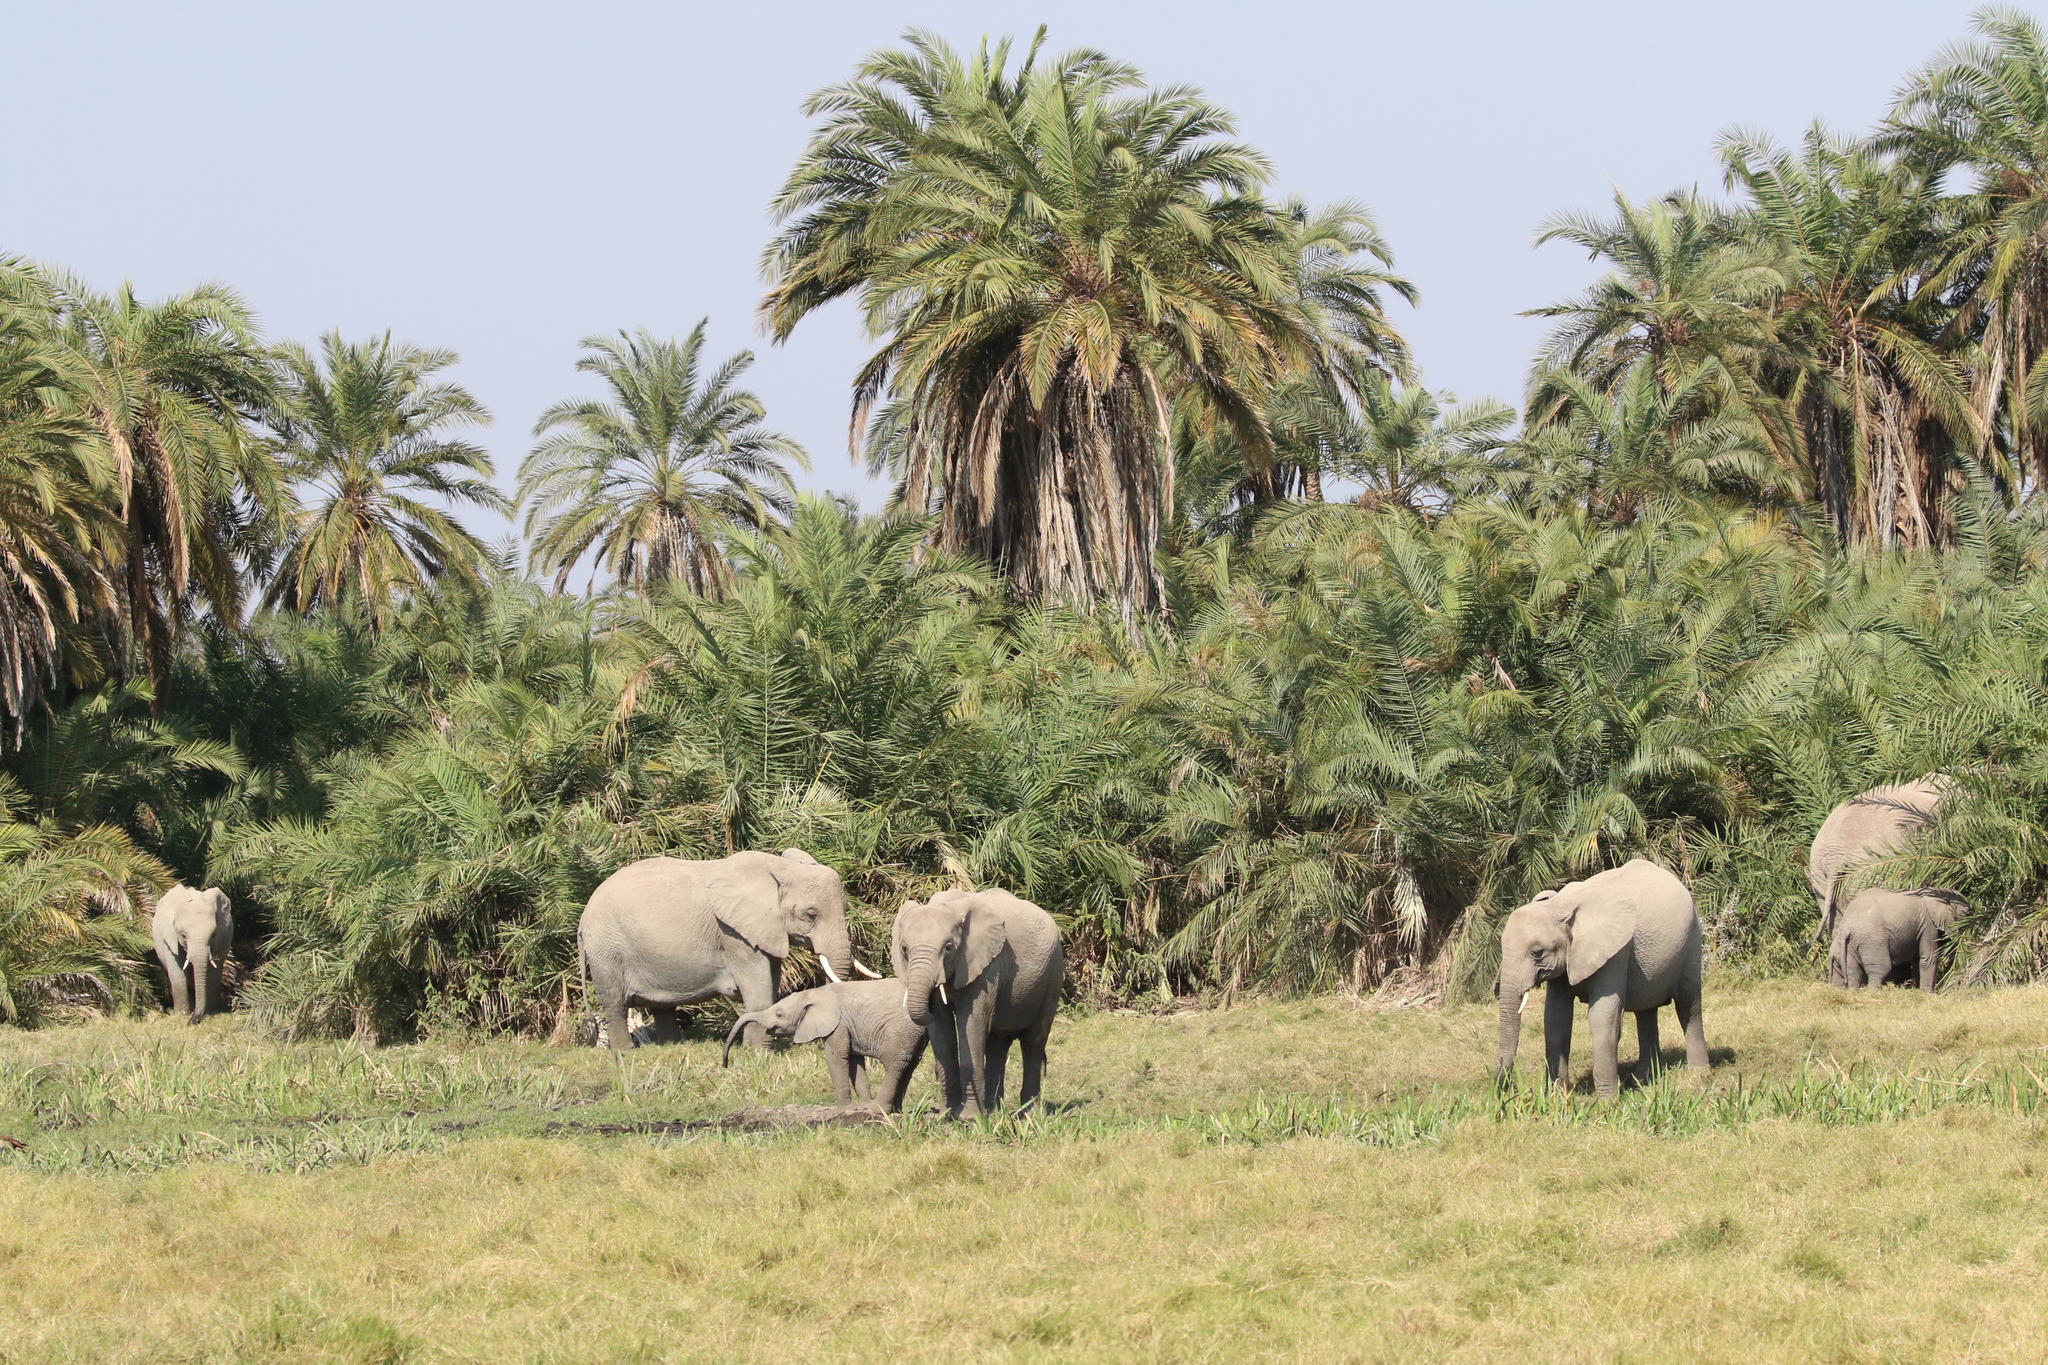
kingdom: Animalia
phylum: Chordata
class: Mammalia
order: Proboscidea
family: Elephantidae
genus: Loxodonta
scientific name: Loxodonta africana
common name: African elephant
